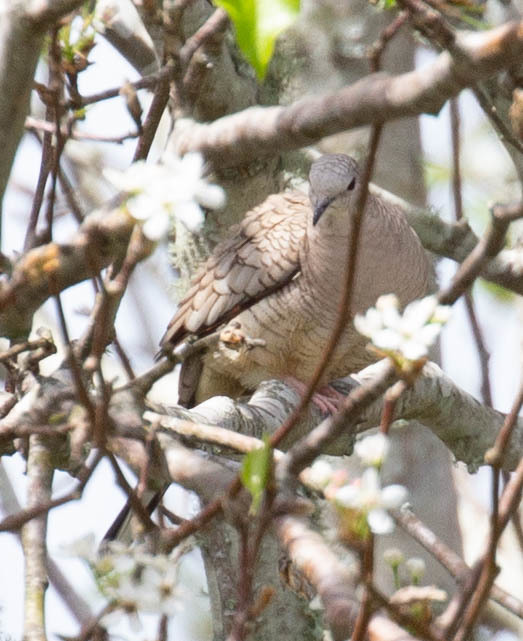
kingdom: Animalia
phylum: Chordata
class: Aves
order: Columbiformes
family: Columbidae
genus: Columbina
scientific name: Columbina inca
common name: Inca dove
